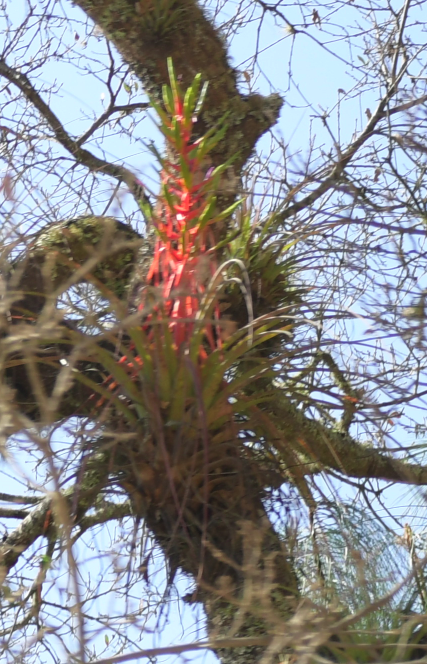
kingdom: Plantae
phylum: Tracheophyta
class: Liliopsida
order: Poales
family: Bromeliaceae
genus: Tillandsia
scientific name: Tillandsia calothyrsus
